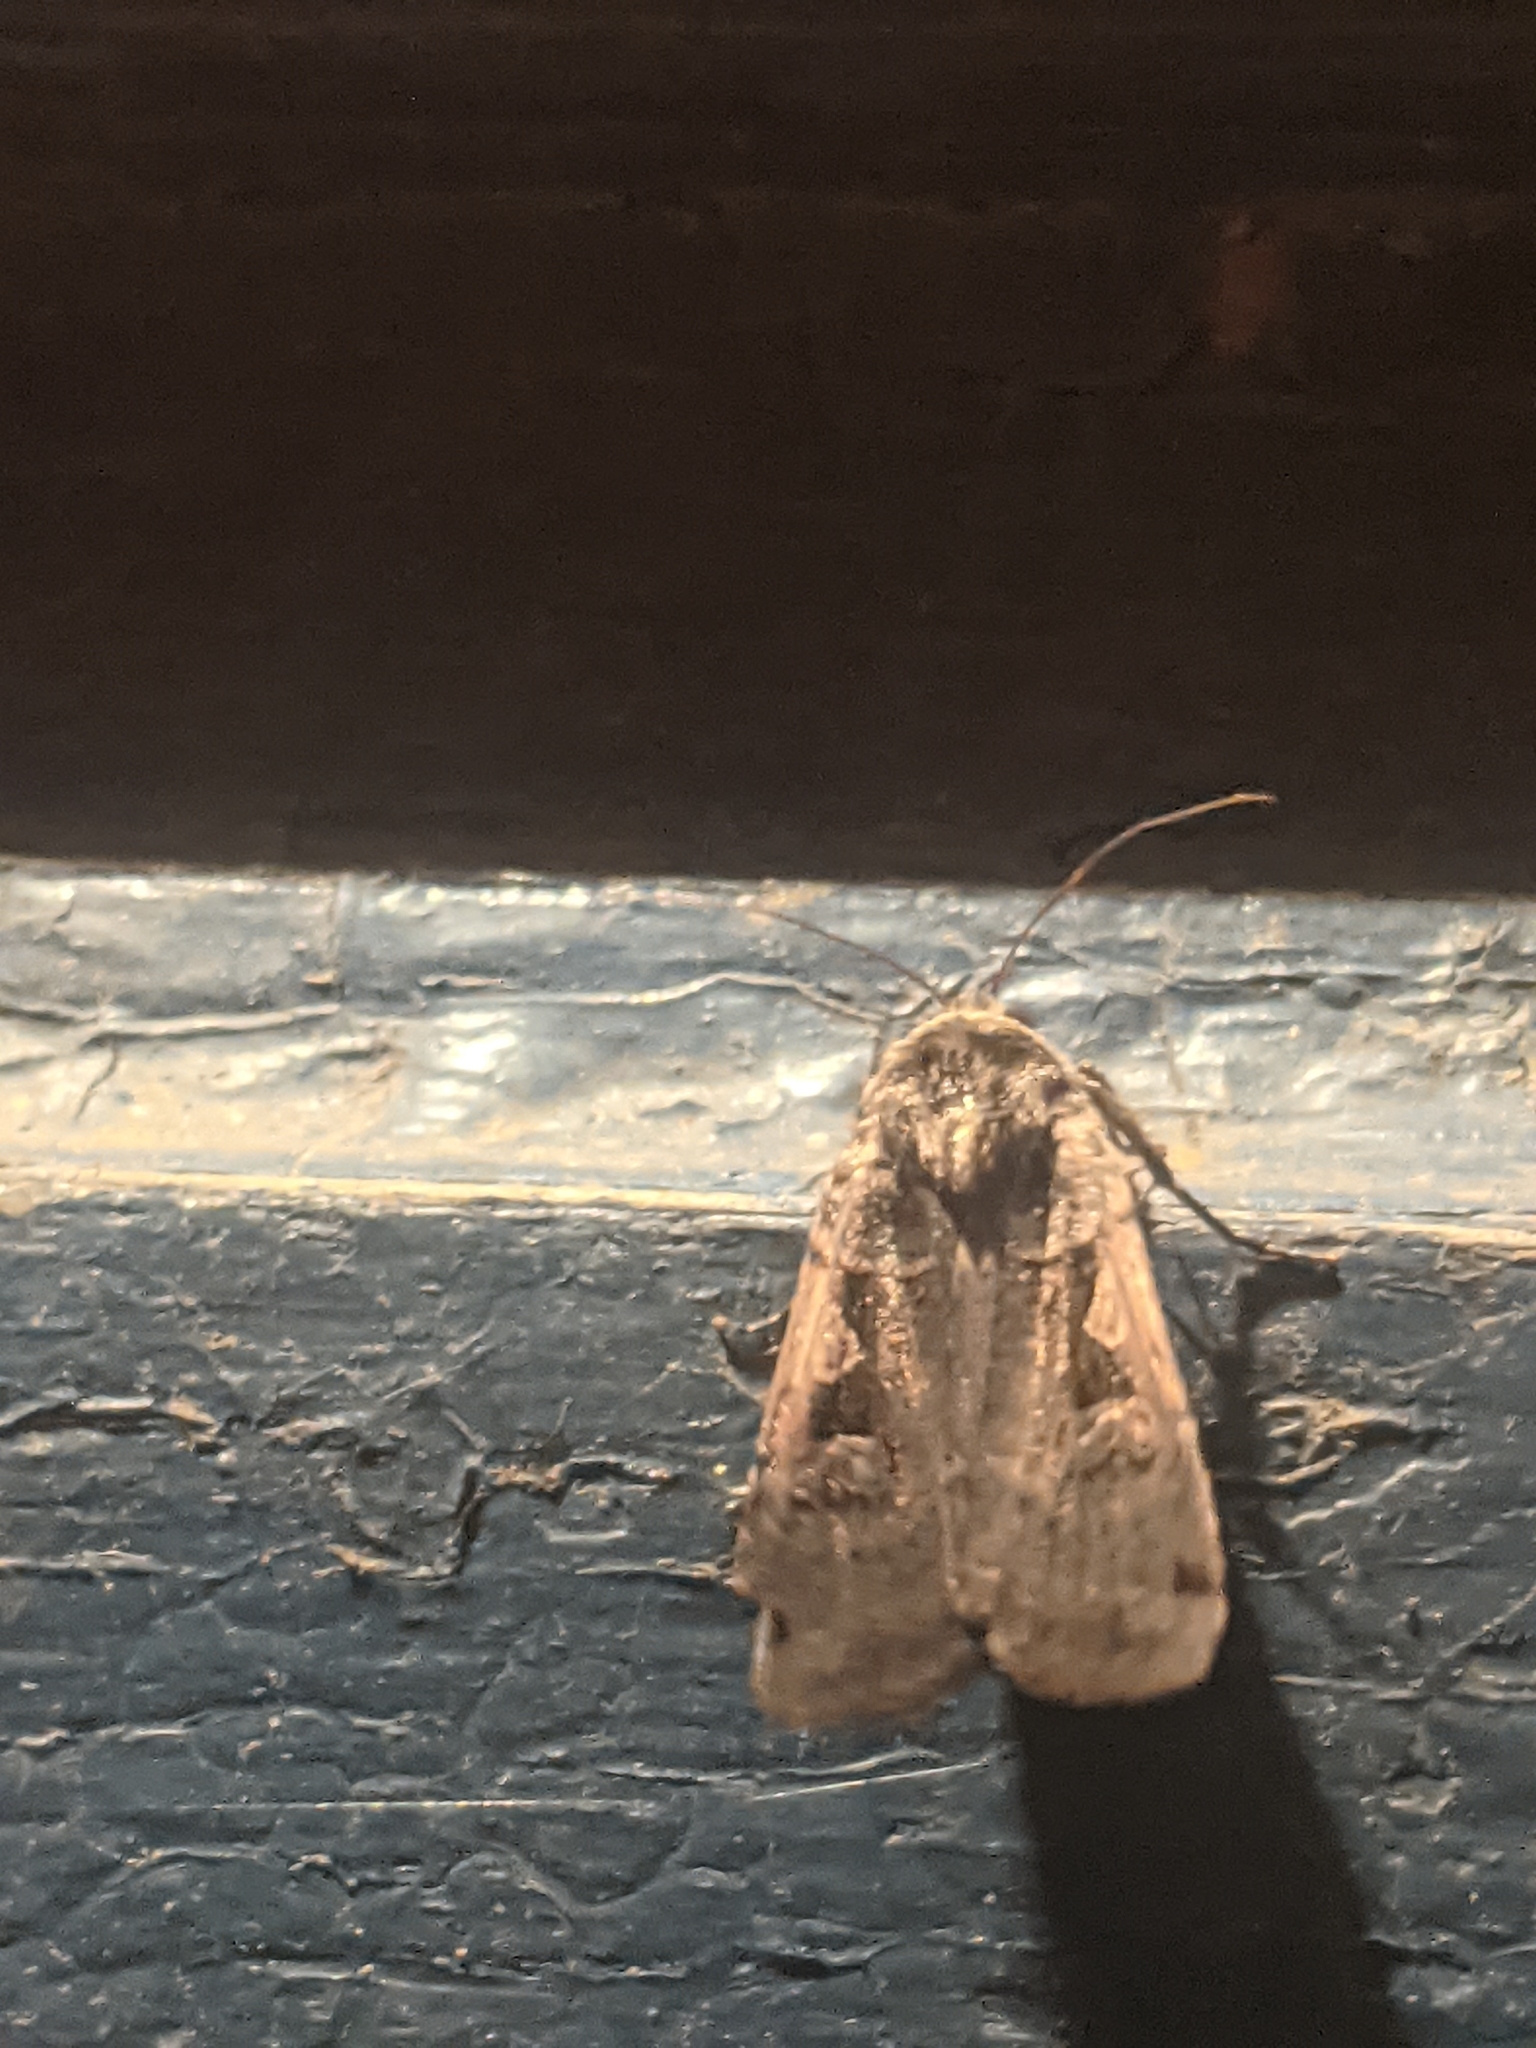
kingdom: Animalia
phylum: Arthropoda
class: Insecta
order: Lepidoptera
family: Noctuidae
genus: Xestia
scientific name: Xestia c-nigrum
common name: Setaceous hebrew character
